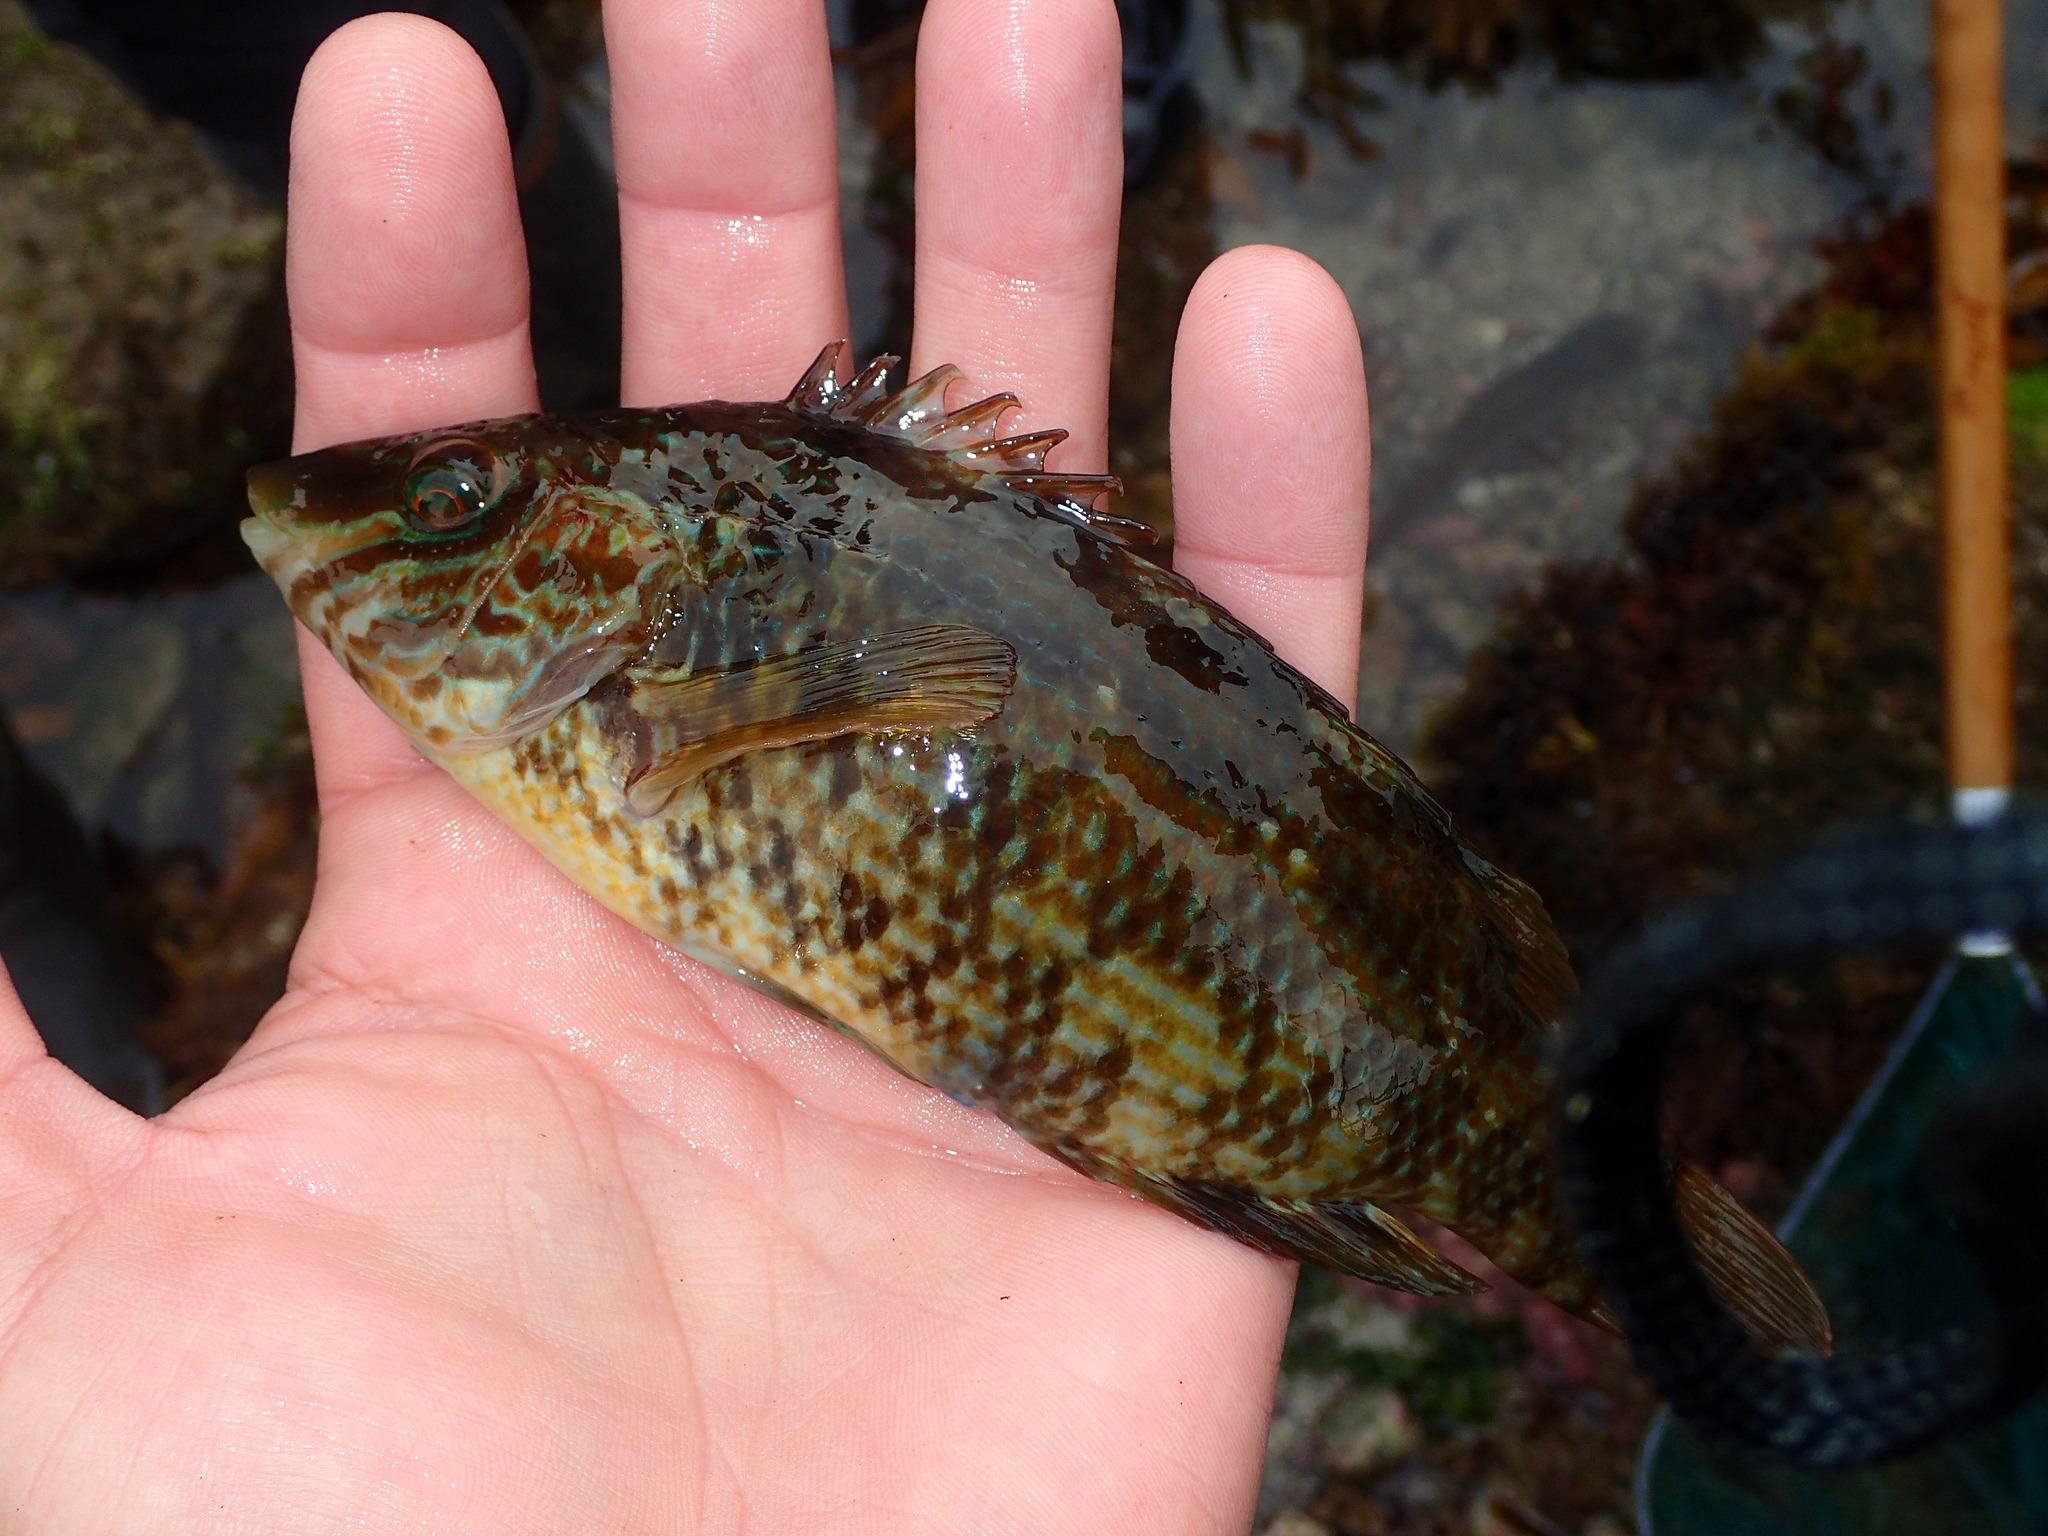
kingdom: Animalia
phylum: Chordata
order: Perciformes
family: Labridae
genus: Symphodus
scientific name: Symphodus melops
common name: Corkwing
